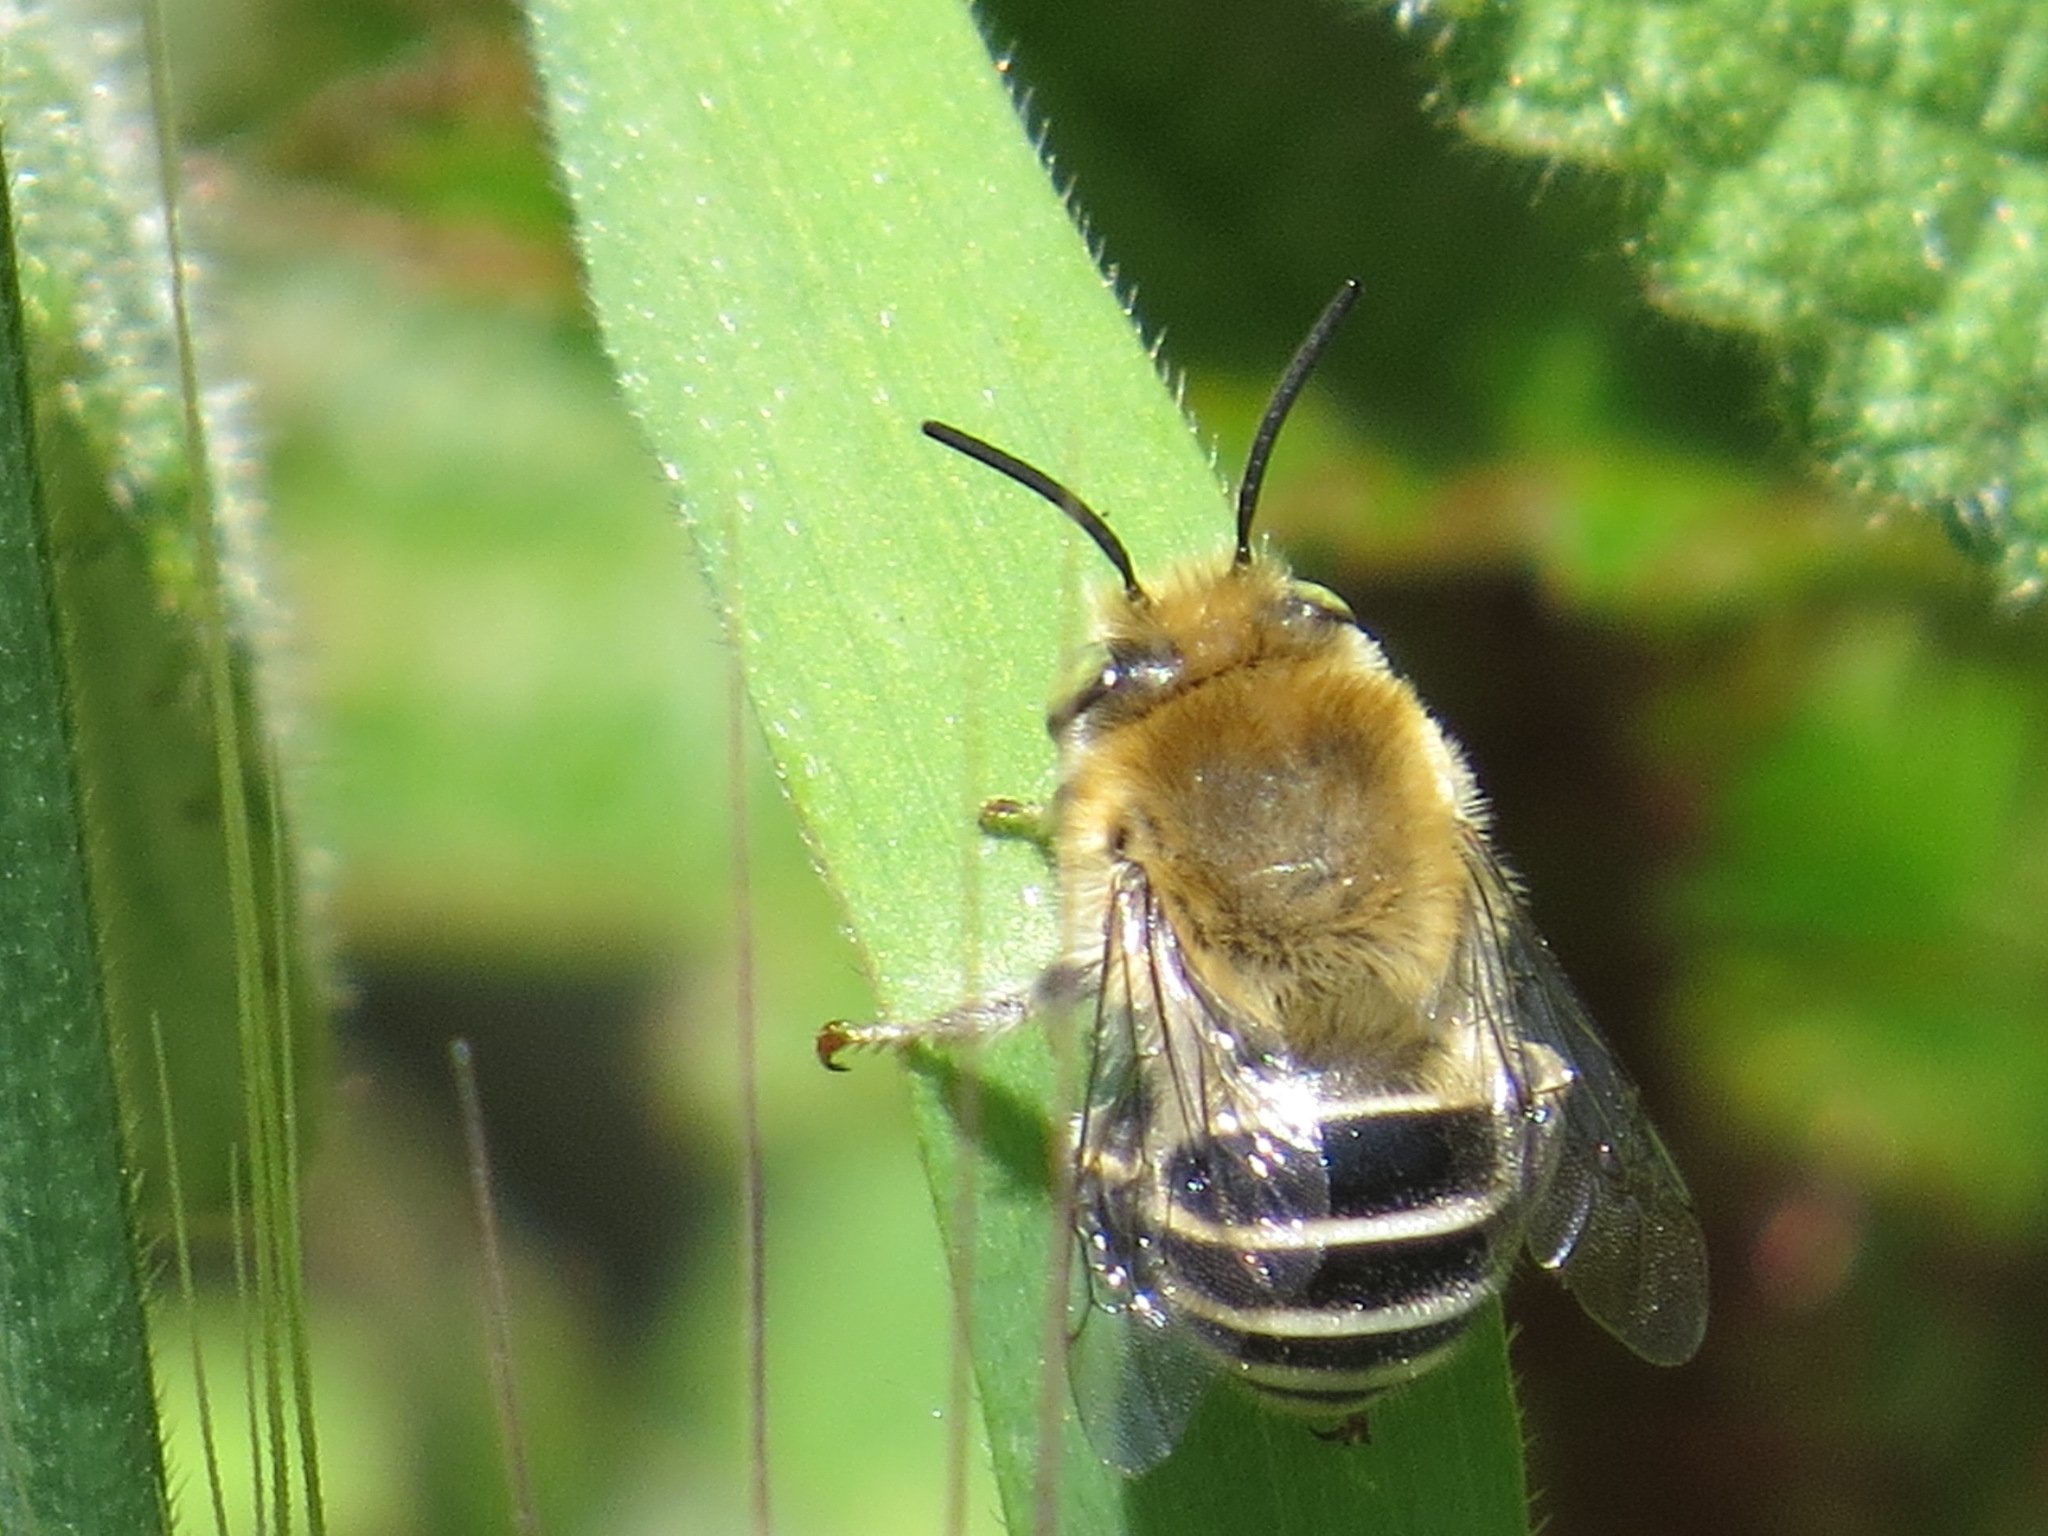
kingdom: Animalia
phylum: Arthropoda
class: Insecta
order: Hymenoptera
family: Apidae
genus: Anthophora
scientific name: Anthophora californica
